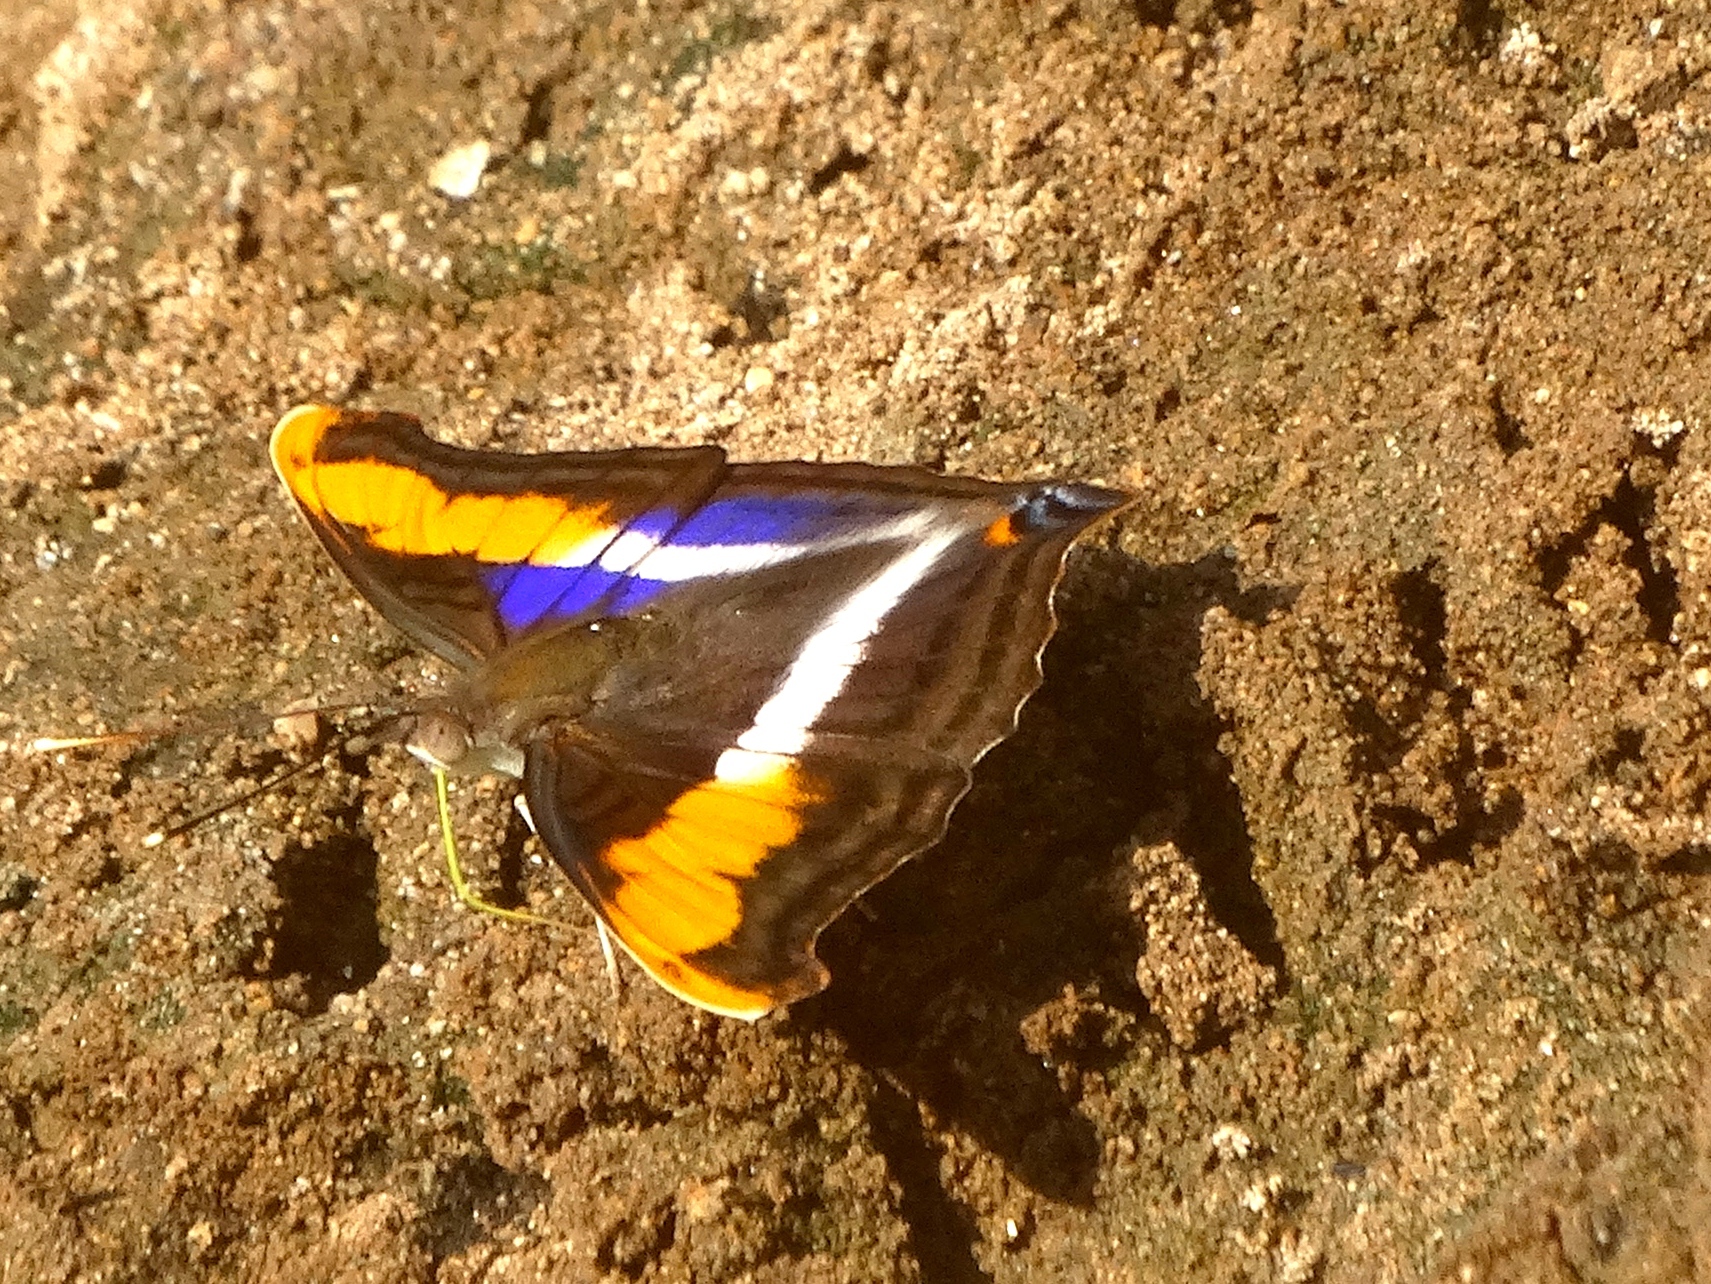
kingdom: Animalia
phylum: Arthropoda
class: Insecta
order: Lepidoptera
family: Nymphalidae
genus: Doxocopa
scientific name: Doxocopa laure
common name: Silver emperor
